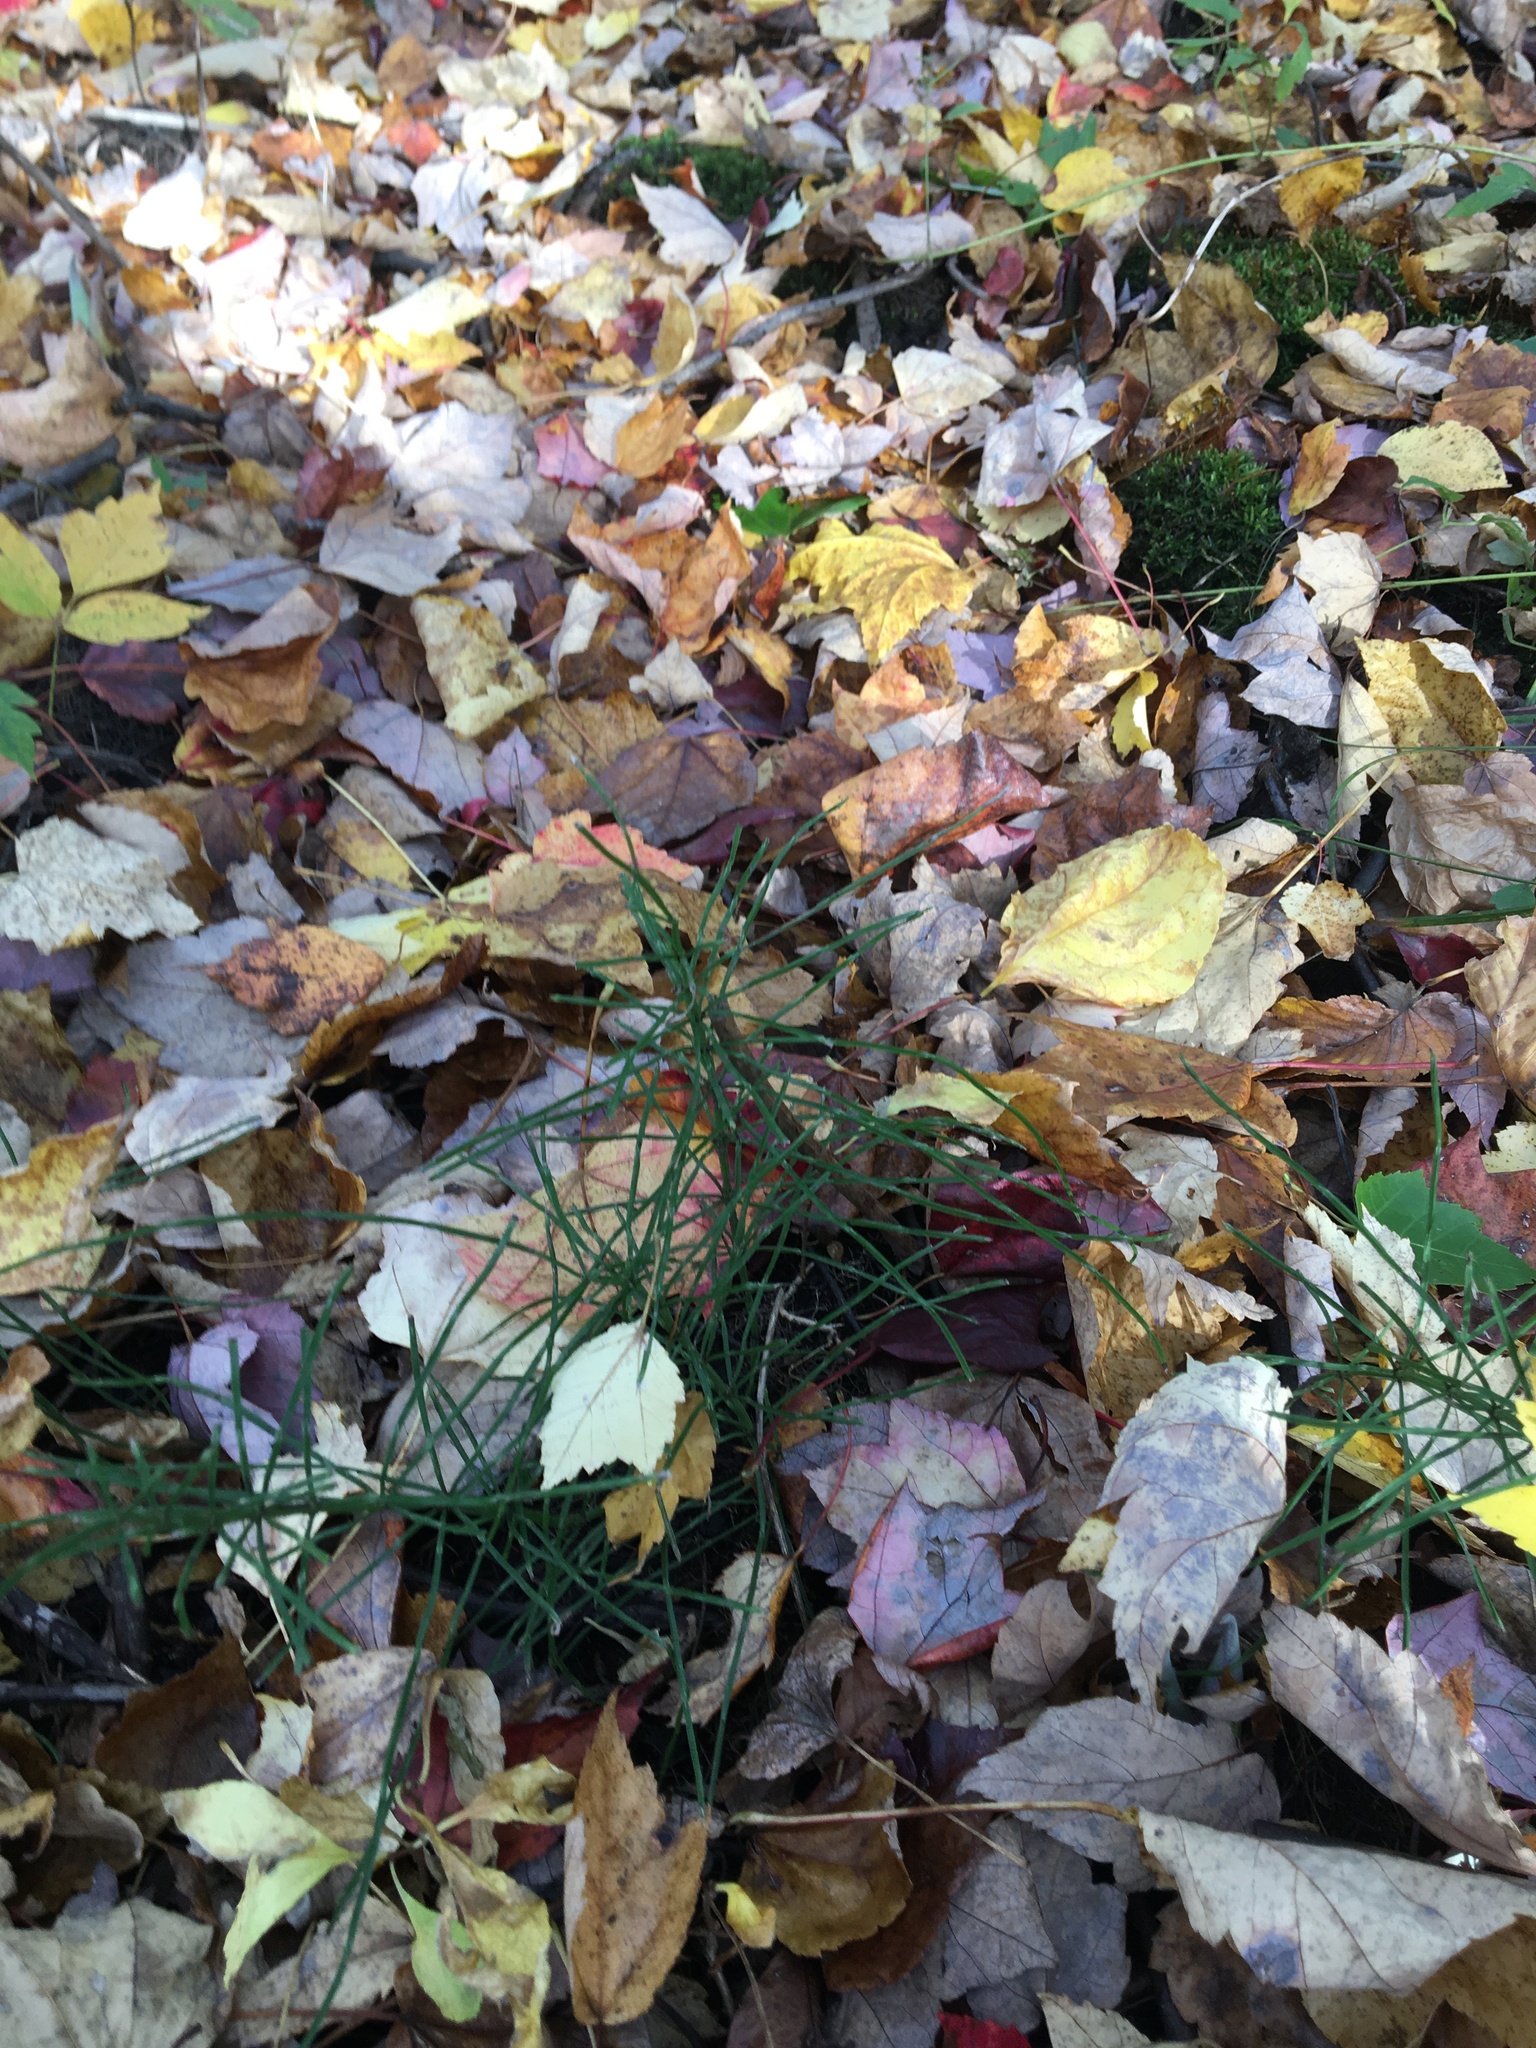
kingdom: Plantae
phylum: Tracheophyta
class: Polypodiopsida
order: Equisetales
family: Equisetaceae
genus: Equisetum
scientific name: Equisetum arvense
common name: Field horsetail
